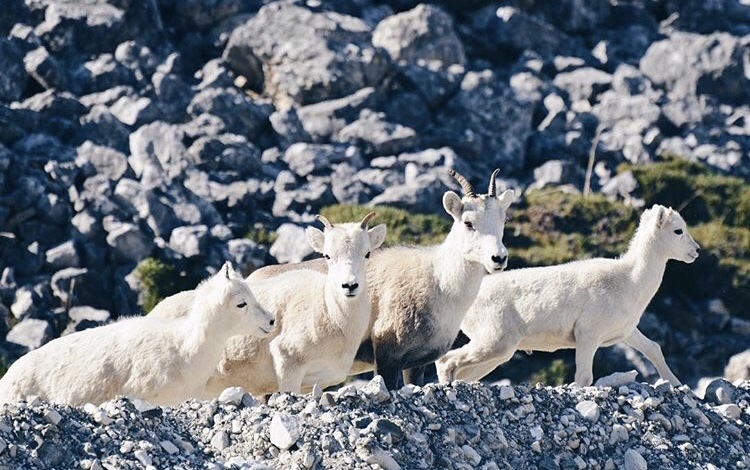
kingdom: Animalia
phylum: Chordata
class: Mammalia
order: Artiodactyla
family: Bovidae
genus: Ovis
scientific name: Ovis dalli
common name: Dall's sheep
